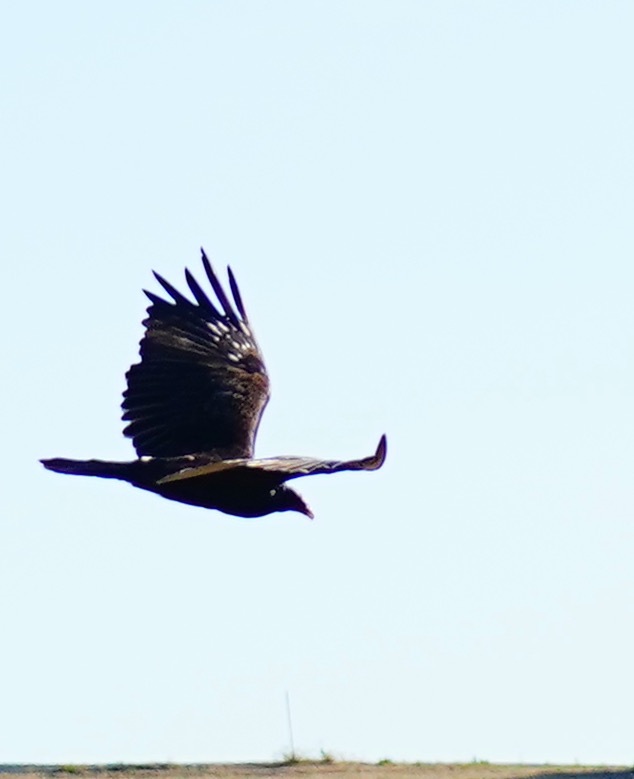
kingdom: Animalia
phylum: Chordata
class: Aves
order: Accipitriformes
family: Cathartidae
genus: Cathartes
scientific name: Cathartes aura
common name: Turkey vulture
